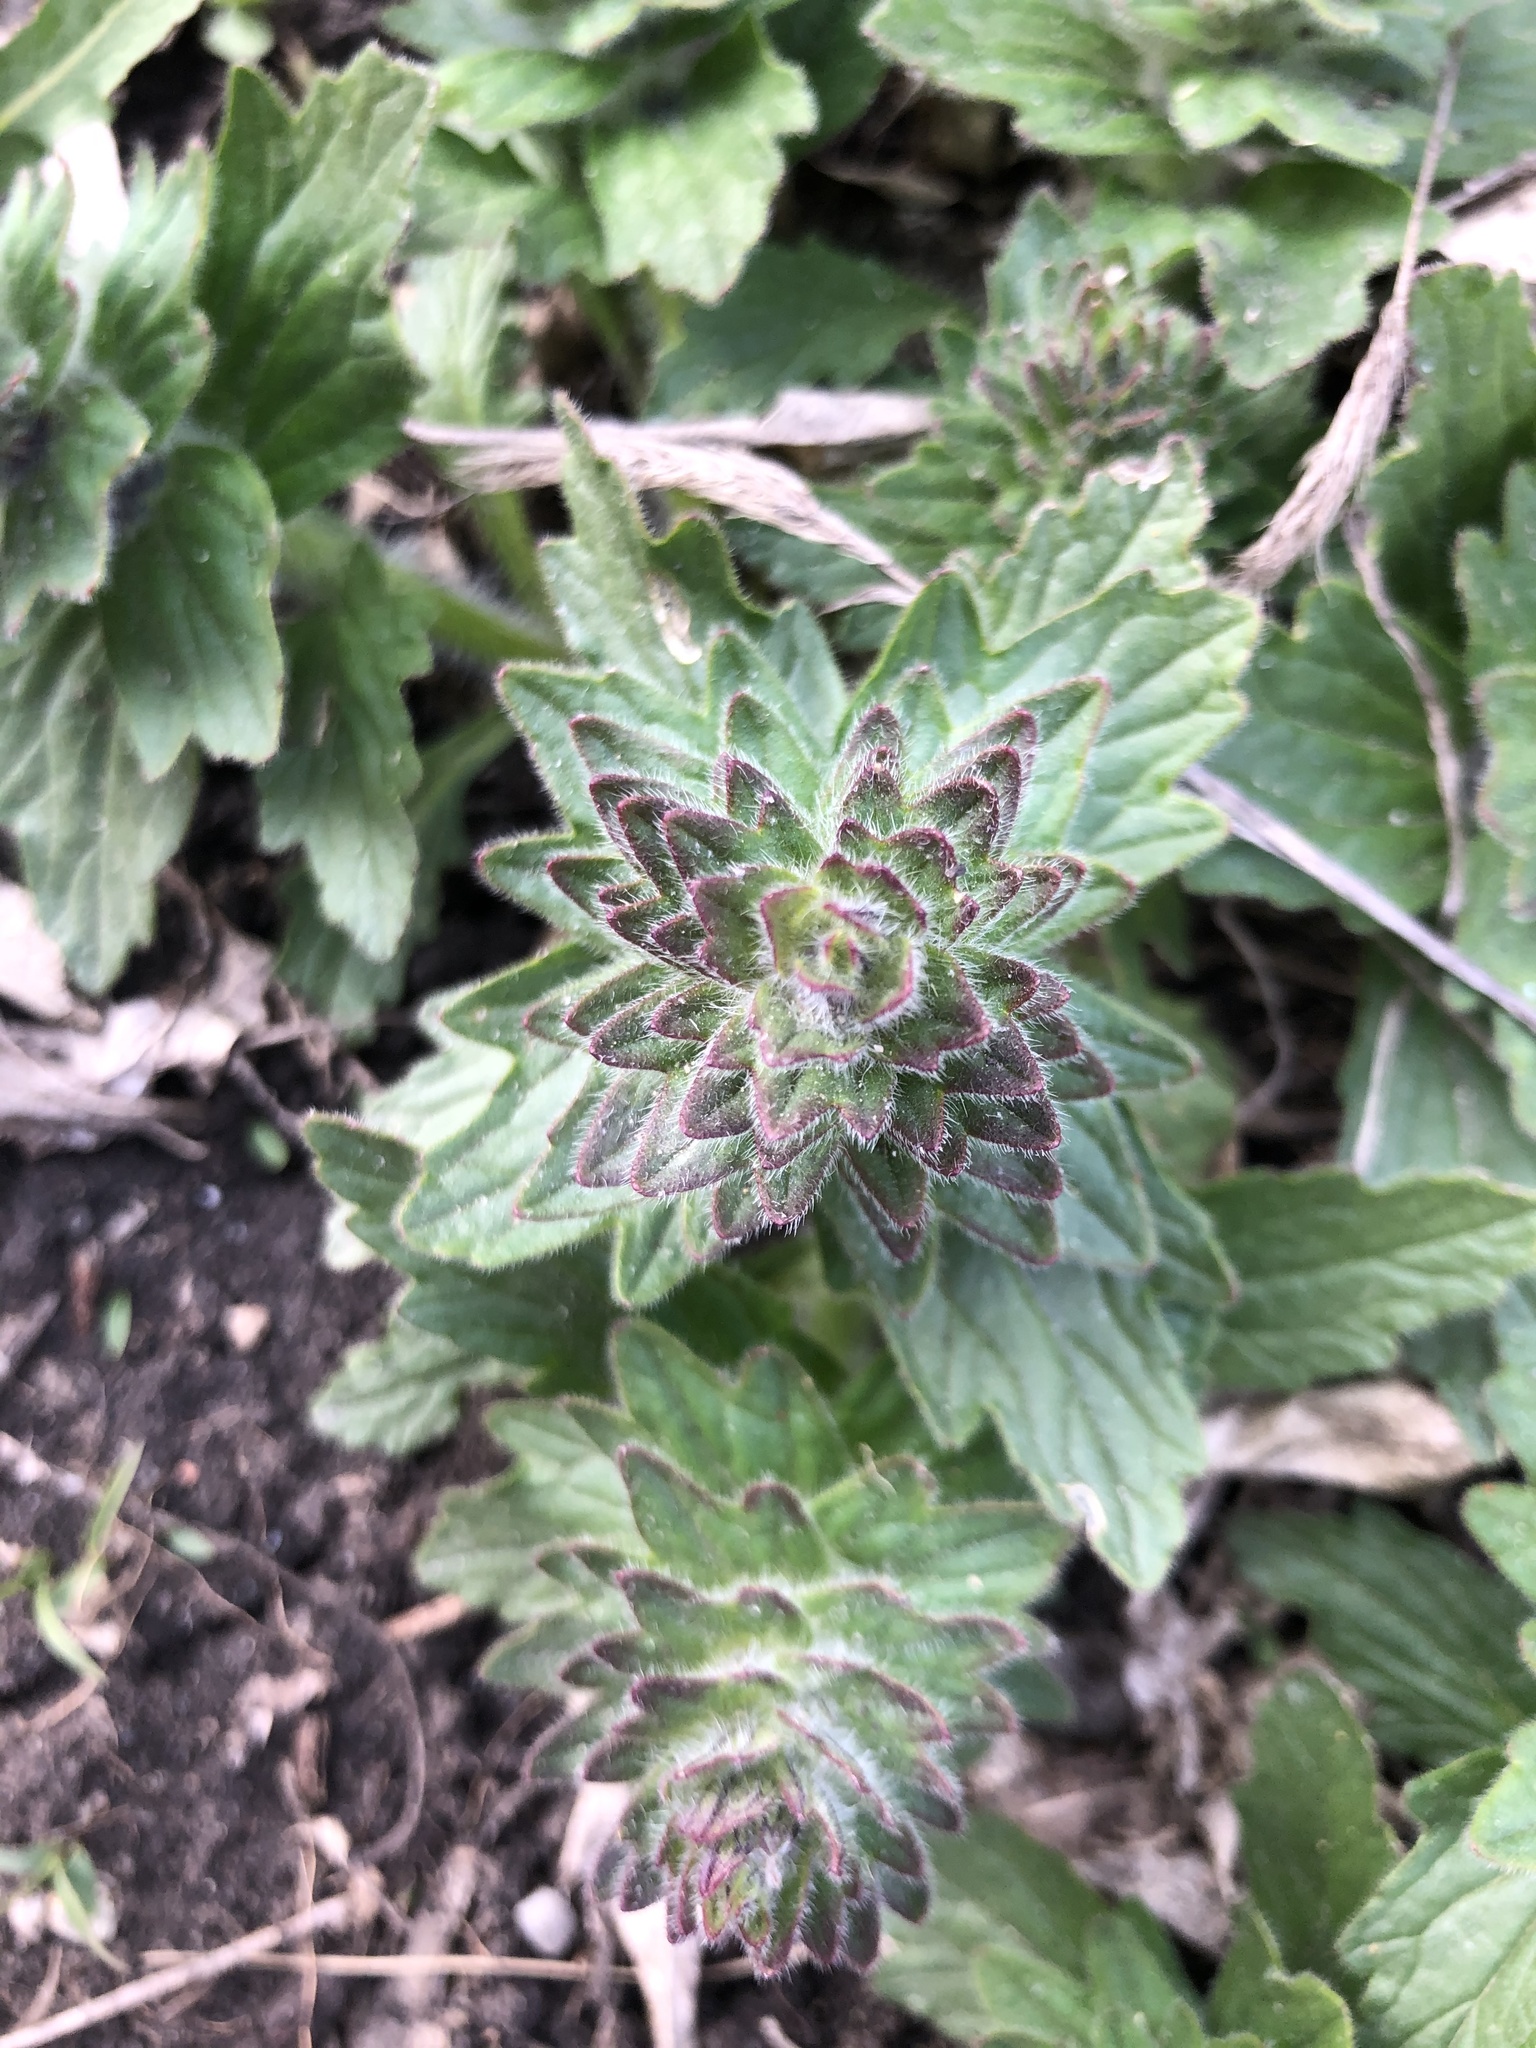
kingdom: Plantae
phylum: Tracheophyta
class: Magnoliopsida
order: Lamiales
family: Lamiaceae
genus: Ajuga
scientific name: Ajuga genevensis
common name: Blue bugle
